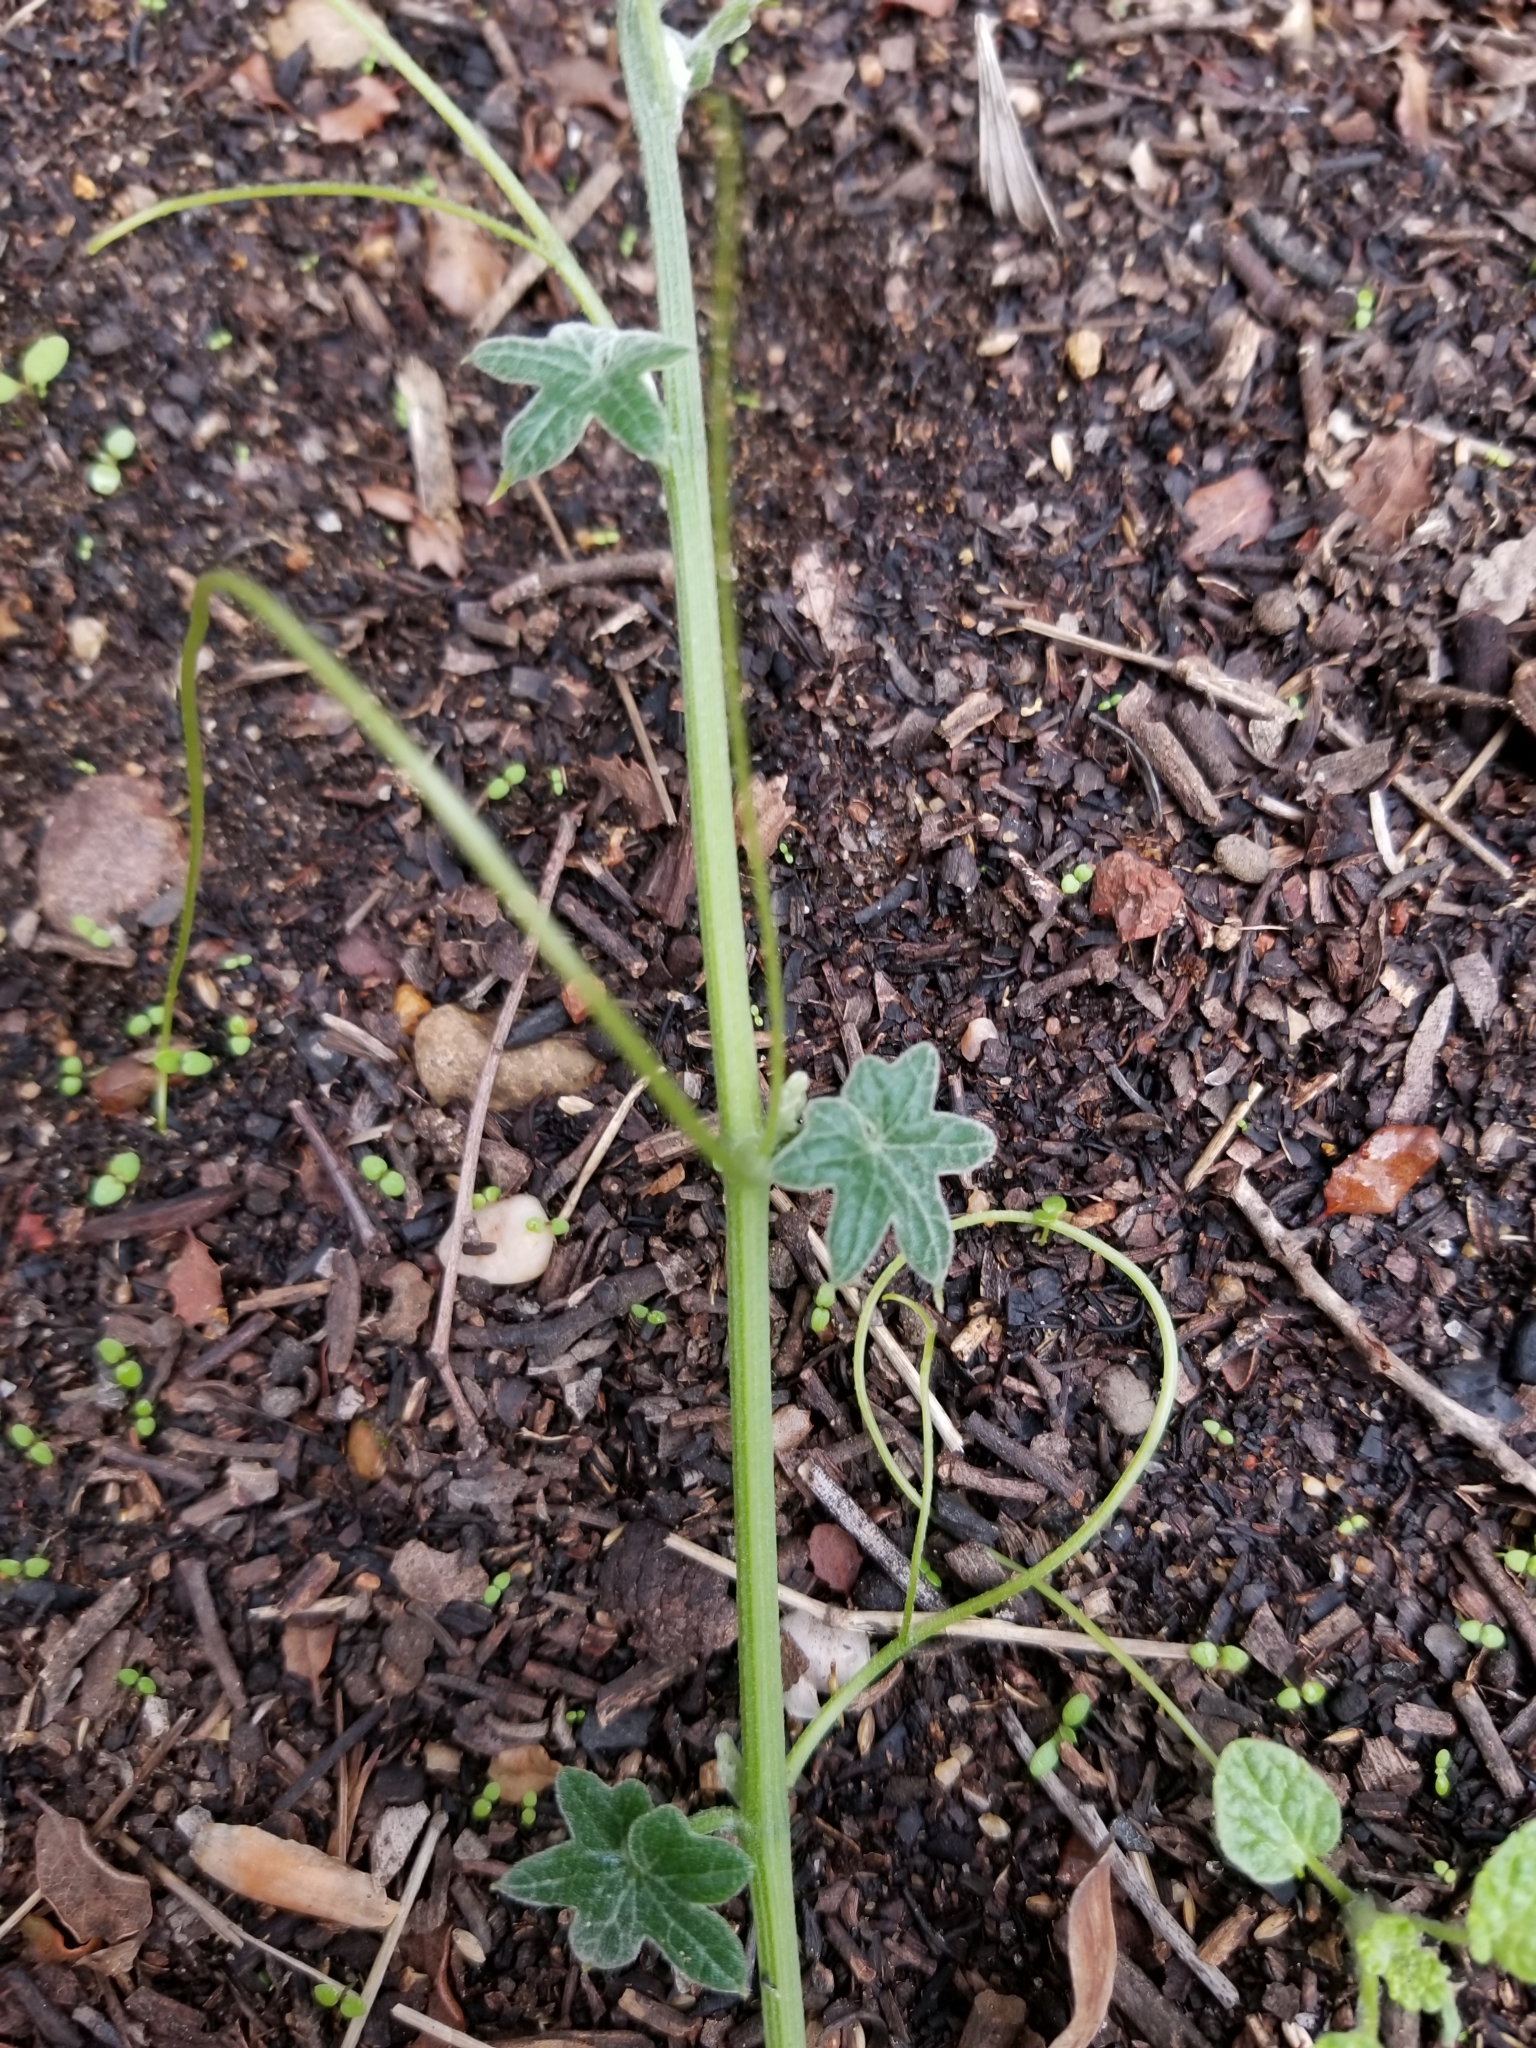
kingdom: Plantae
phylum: Tracheophyta
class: Magnoliopsida
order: Cucurbitales
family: Cucurbitaceae
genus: Marah
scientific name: Marah macrocarpa
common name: Cucamonga manroot
